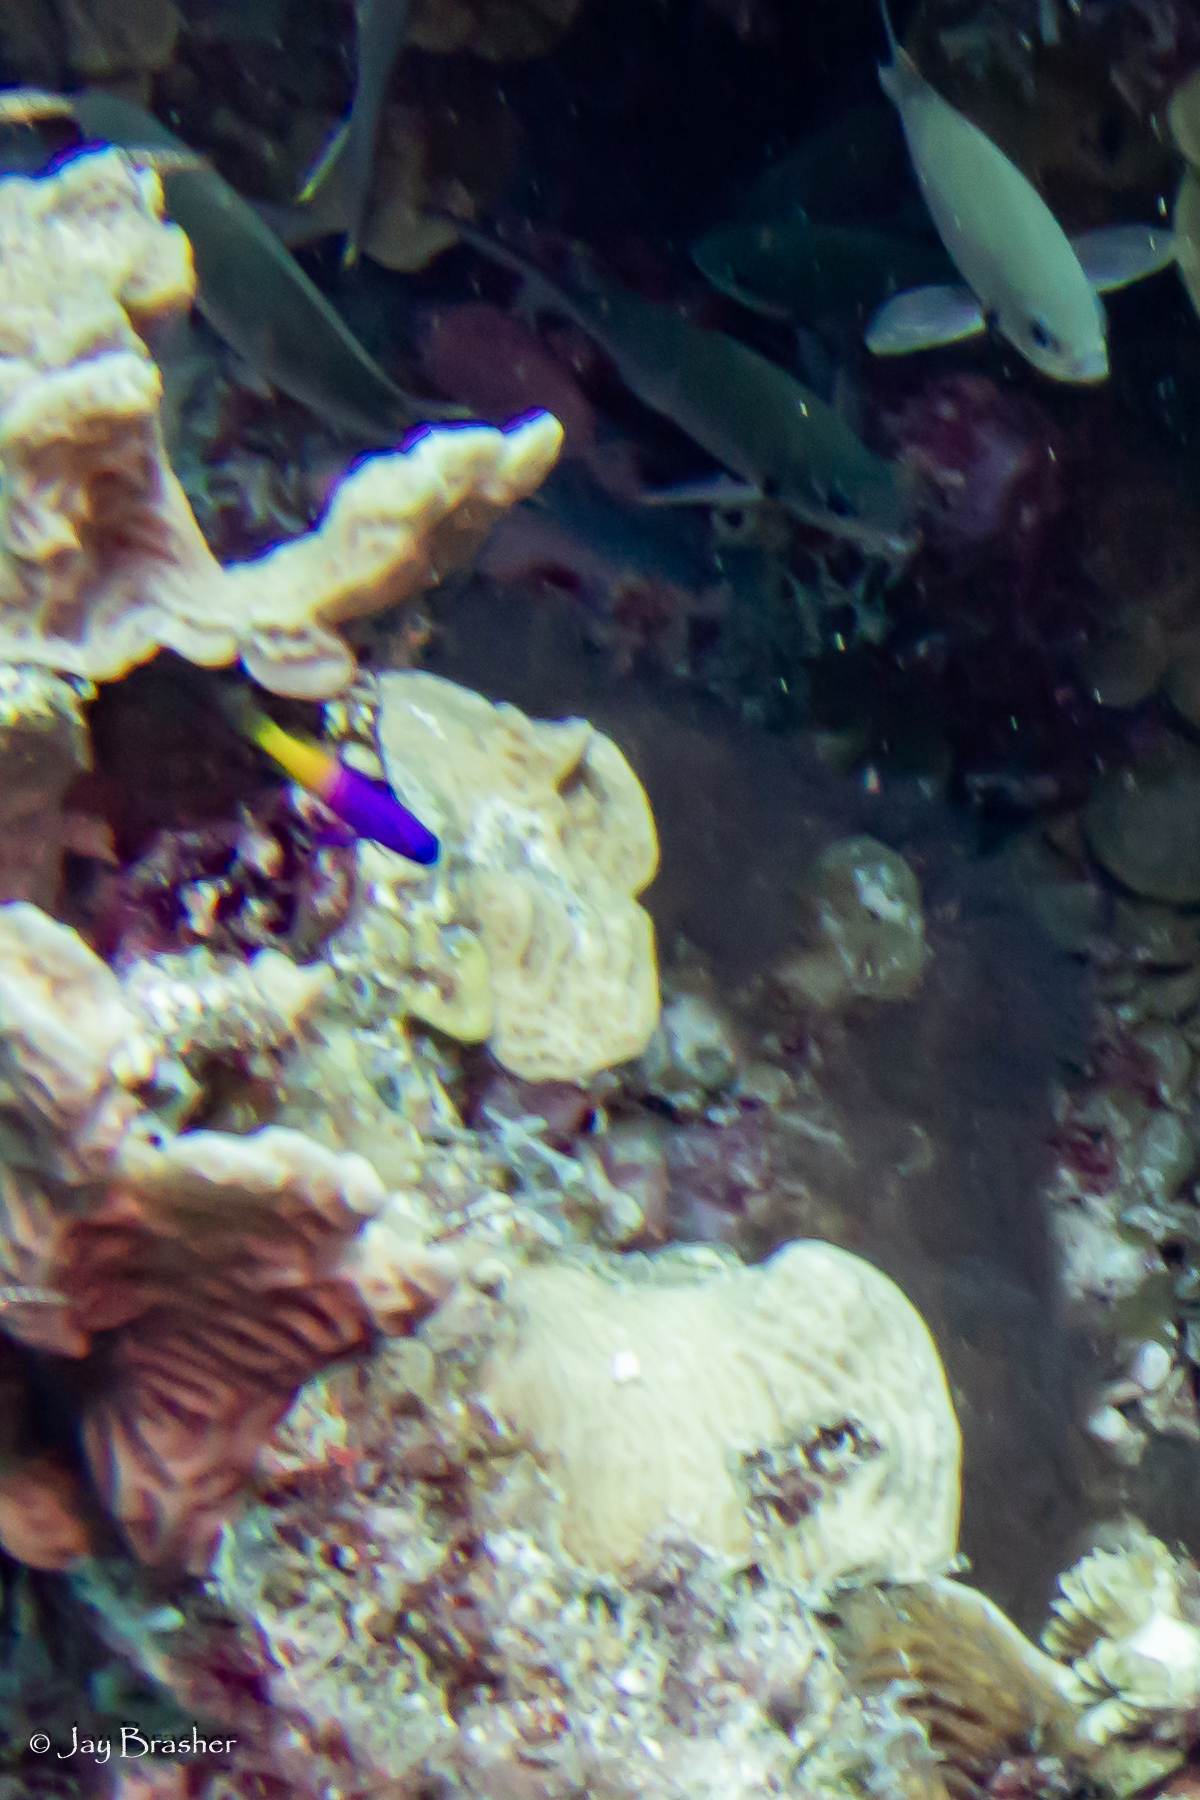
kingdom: Animalia
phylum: Chordata
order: Perciformes
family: Grammatidae
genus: Gramma
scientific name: Gramma loreto
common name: Fairy basslet
